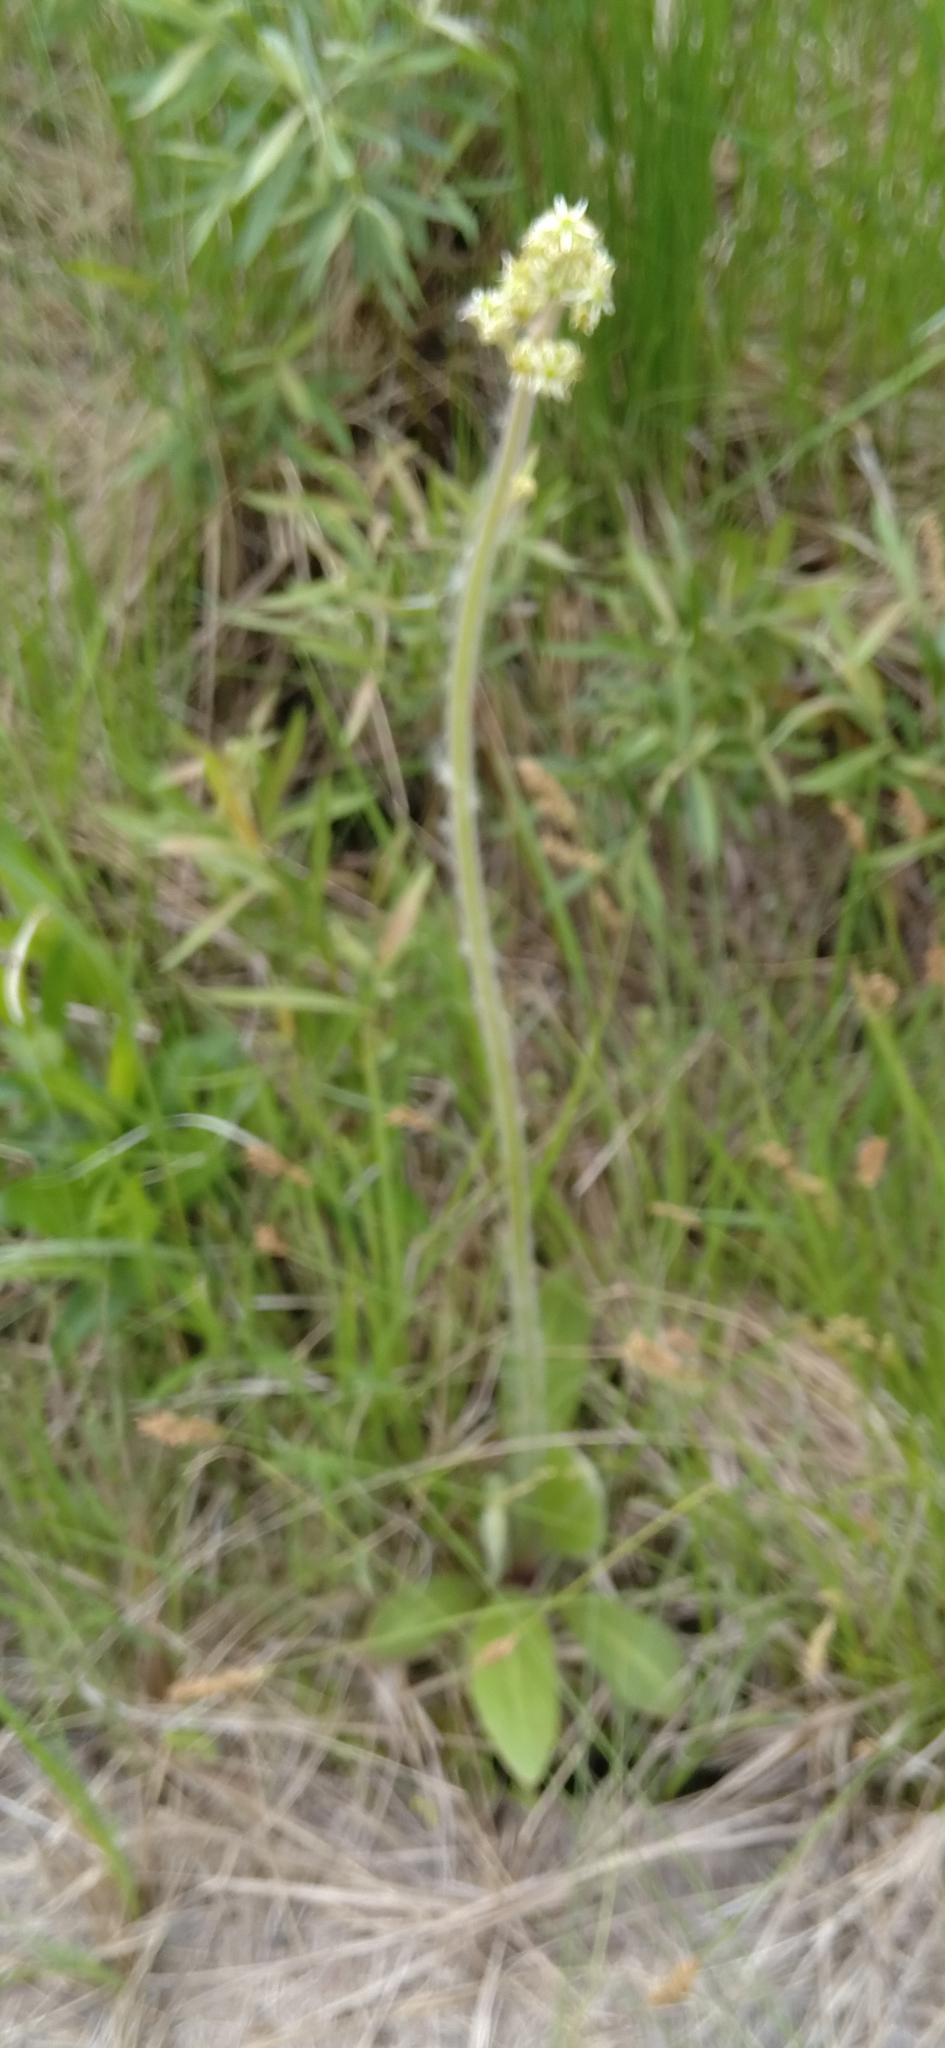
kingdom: Plantae
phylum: Tracheophyta
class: Magnoliopsida
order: Saxifragales
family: Saxifragaceae
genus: Micranthes
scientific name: Micranthes pensylvanica
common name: Marsh saxifrage
